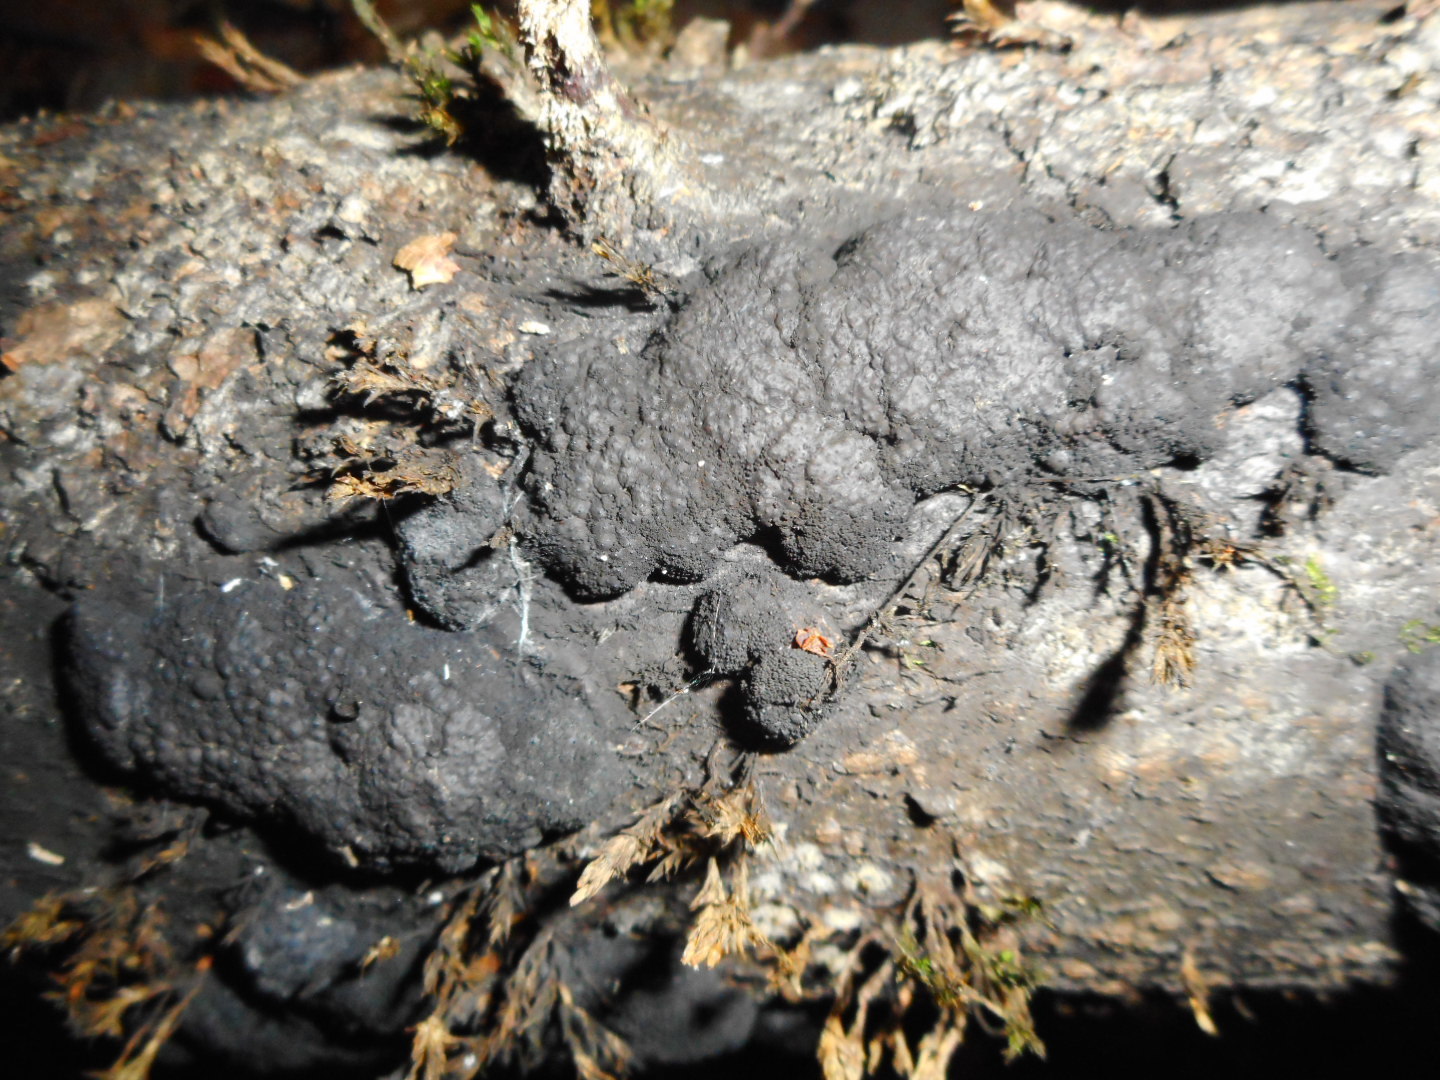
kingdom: Fungi
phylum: Ascomycota
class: Sordariomycetes
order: Xylariales
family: Hypoxylaceae
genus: Jackrogersella
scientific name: Jackrogersella multiformis
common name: Birch woodwart
